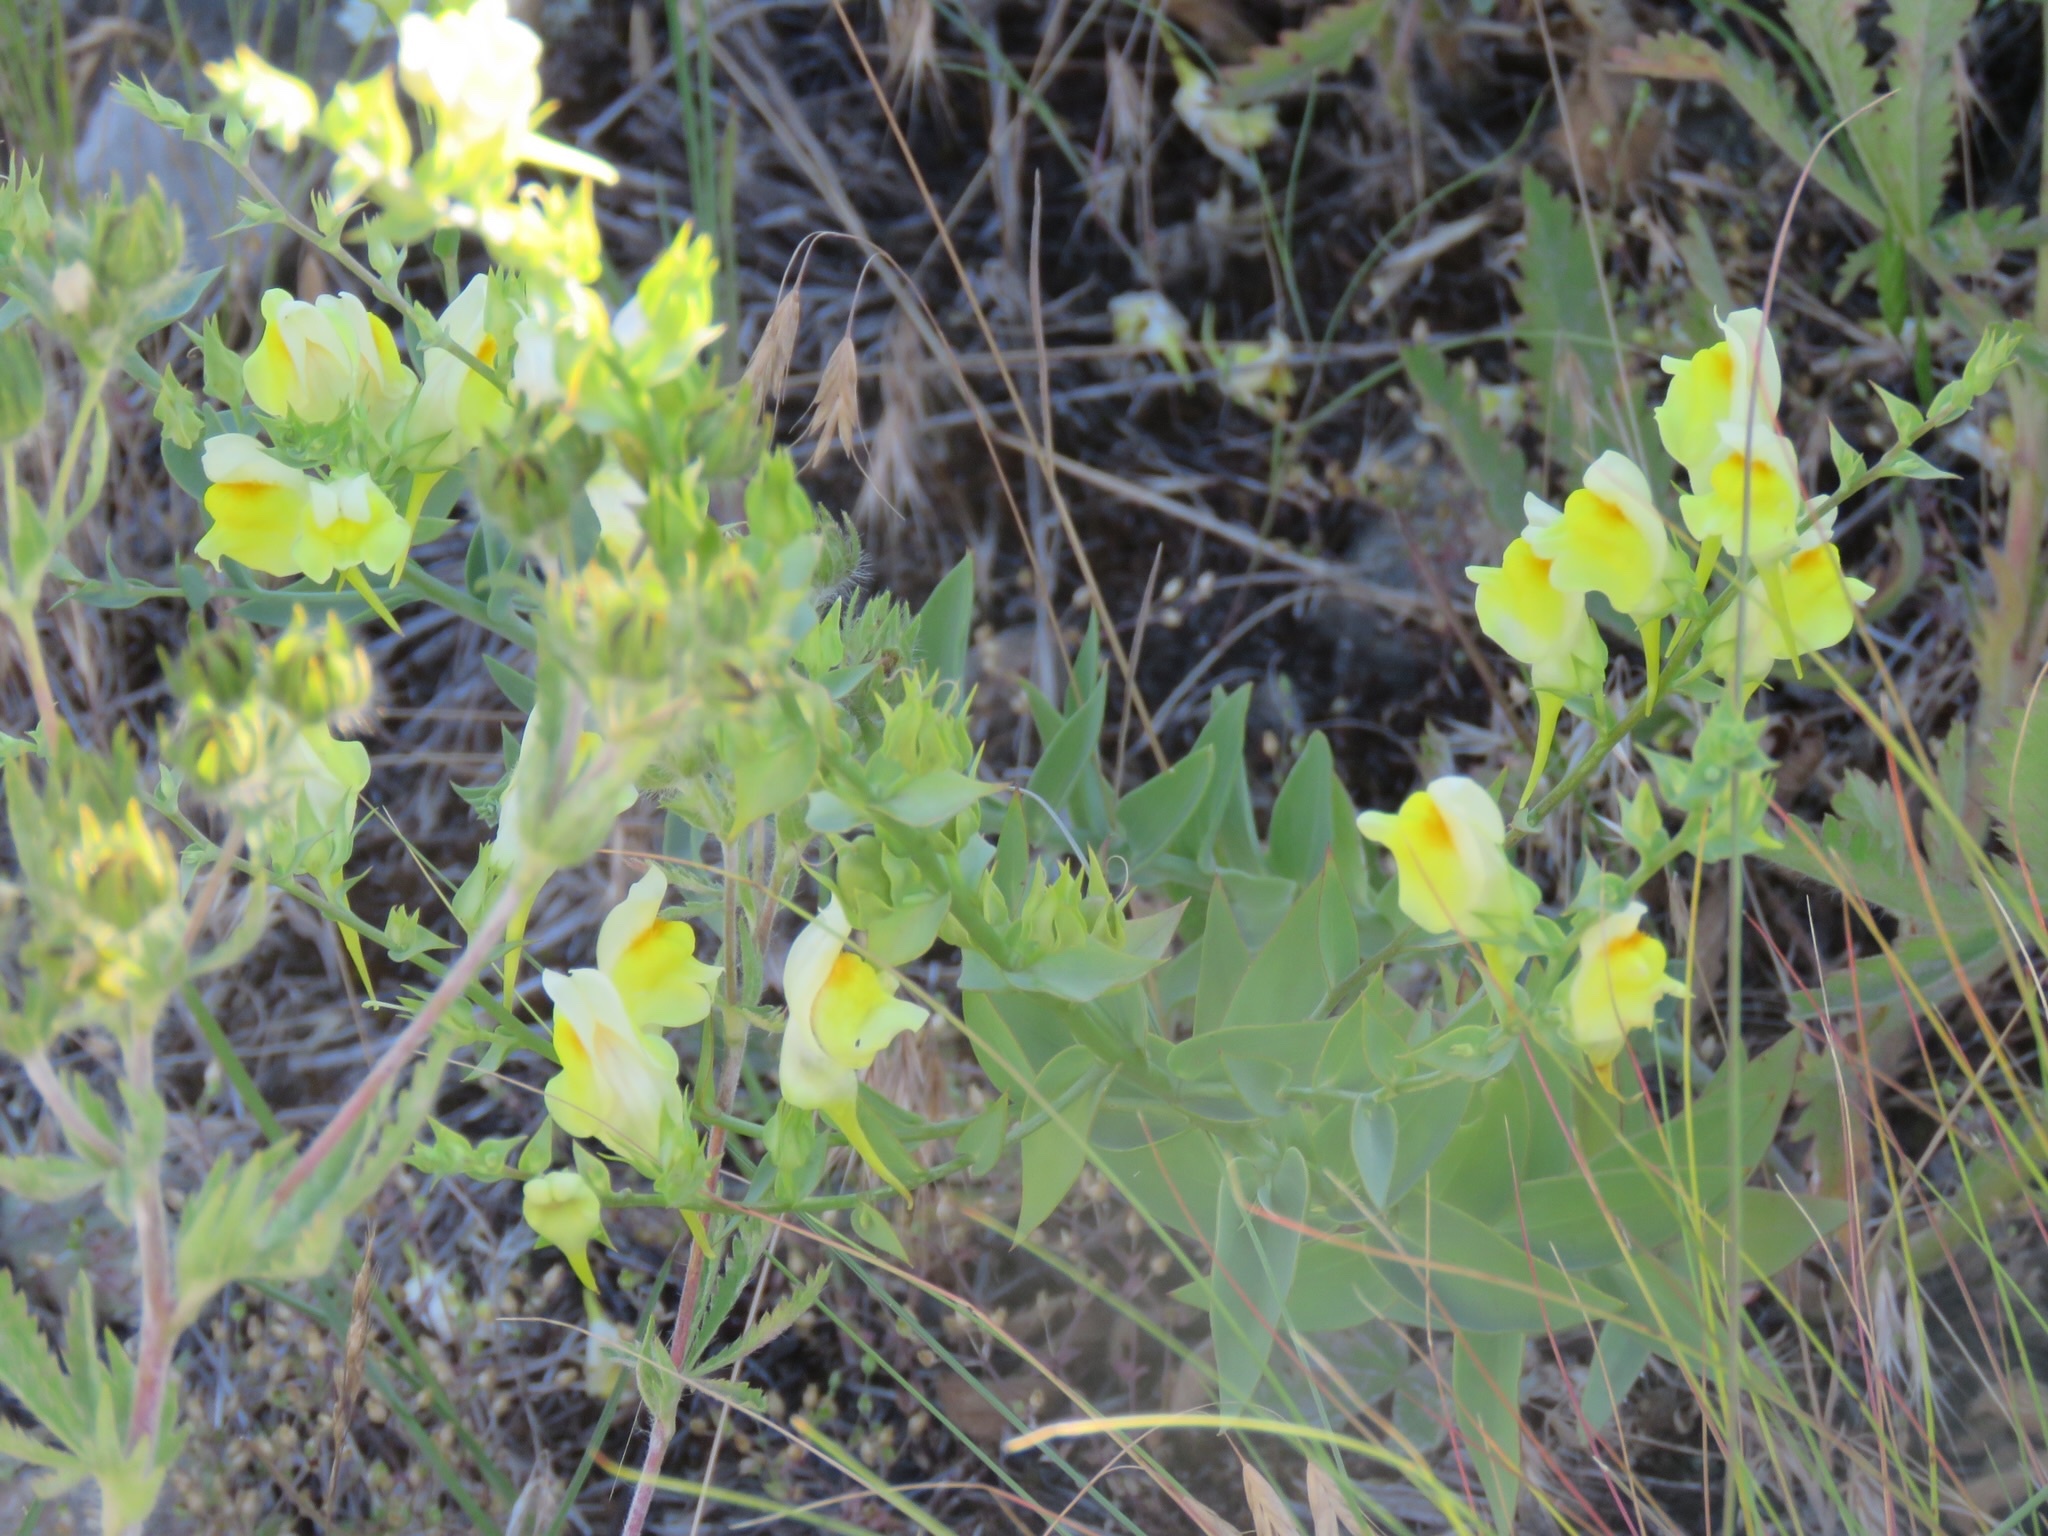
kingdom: Plantae
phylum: Tracheophyta
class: Magnoliopsida
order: Lamiales
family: Plantaginaceae
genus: Linaria
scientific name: Linaria dalmatica
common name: Dalmatian toadflax
